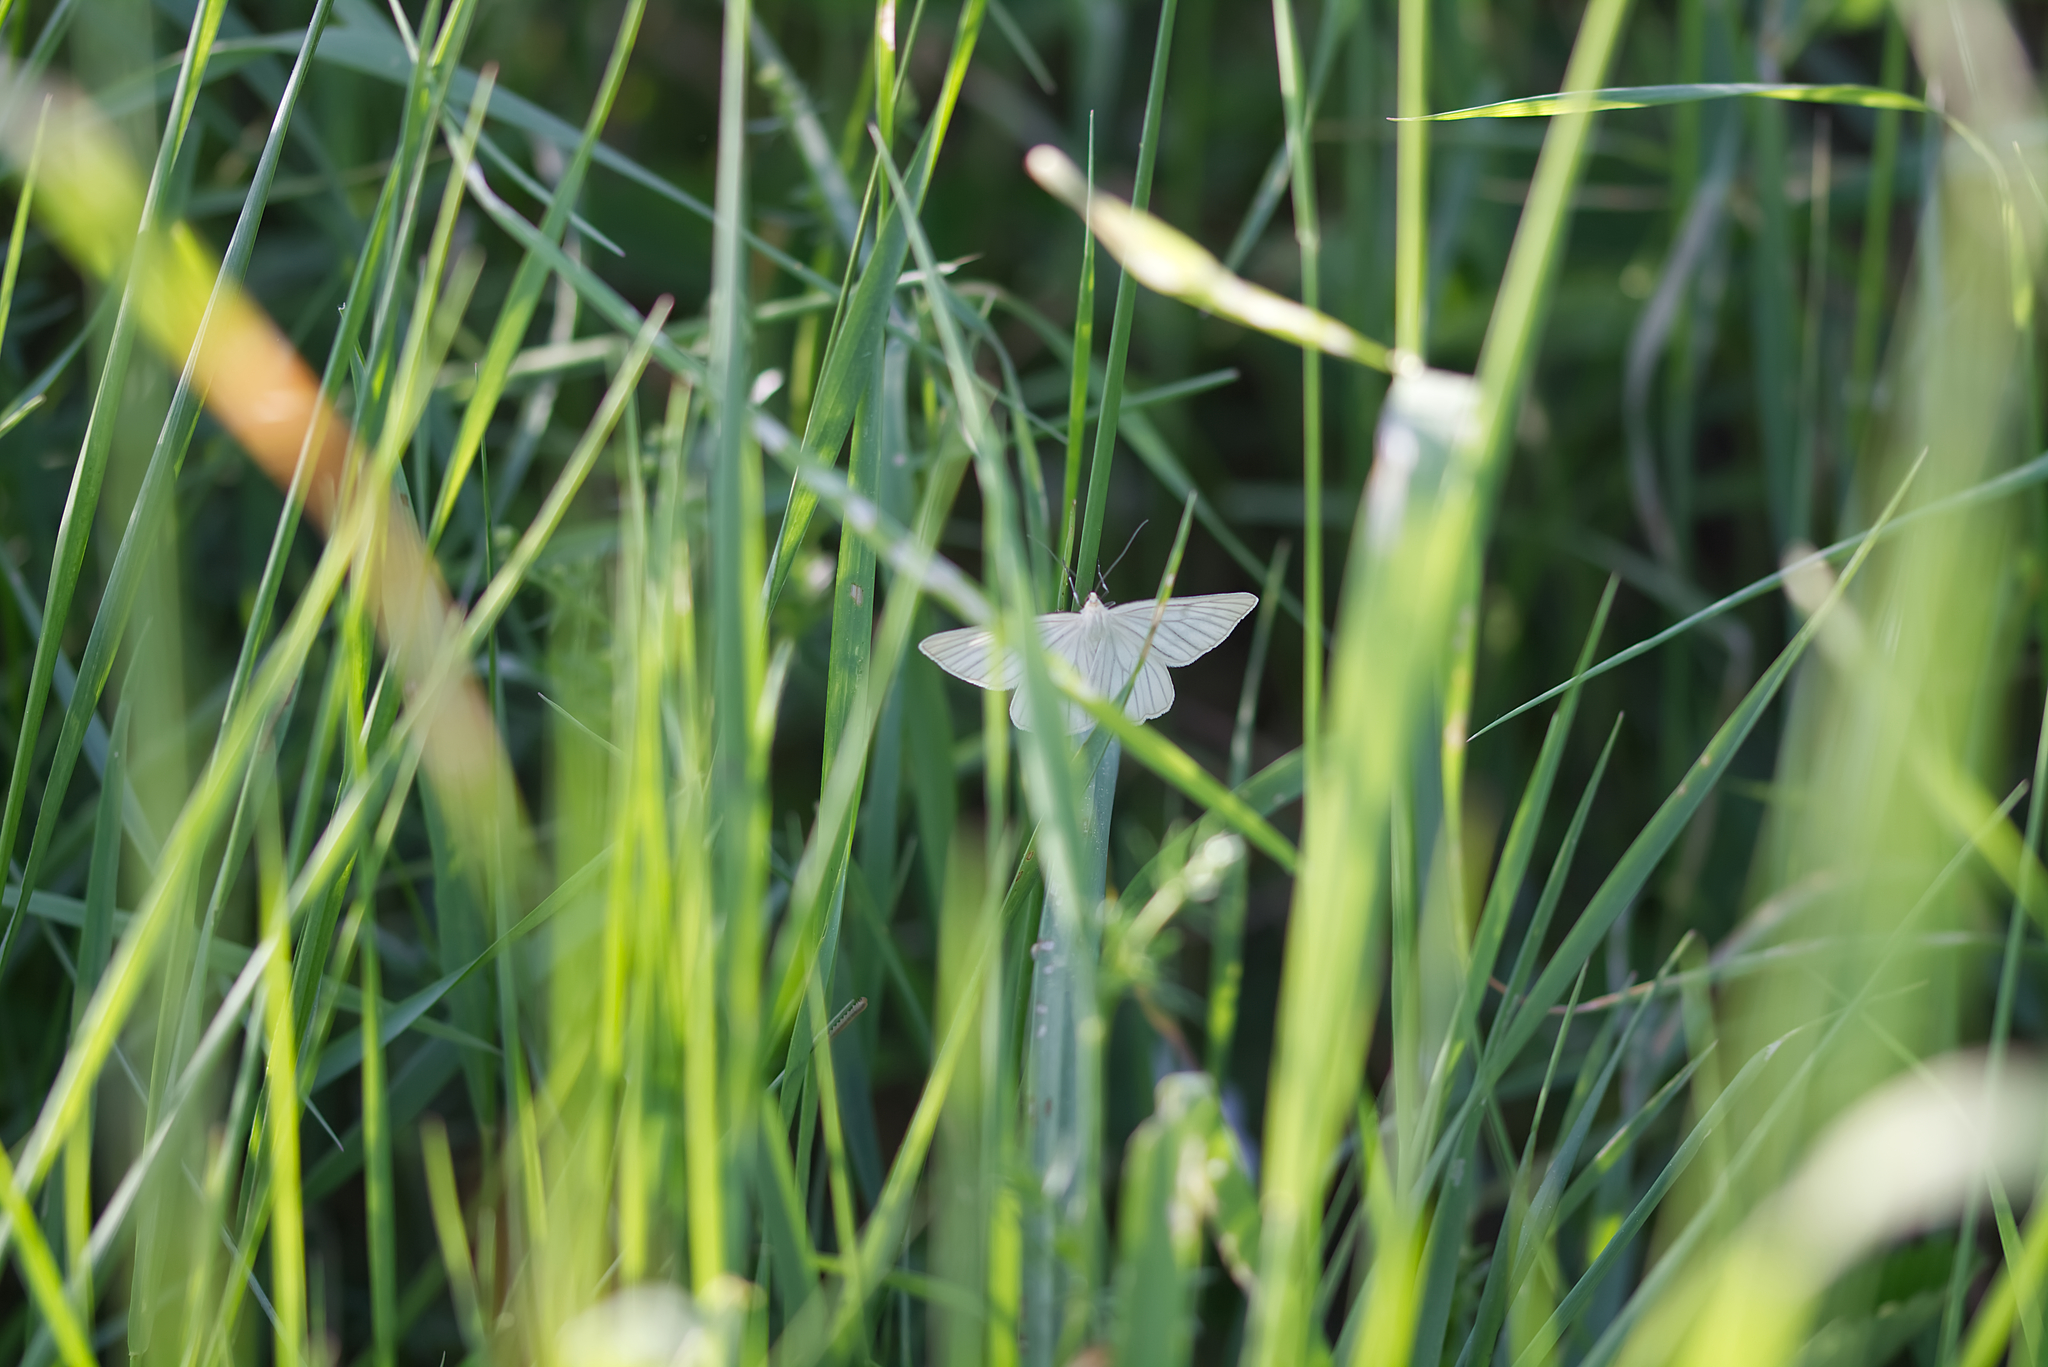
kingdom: Animalia
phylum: Arthropoda
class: Insecta
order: Lepidoptera
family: Geometridae
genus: Siona
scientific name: Siona lineata
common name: Black-veined moth
